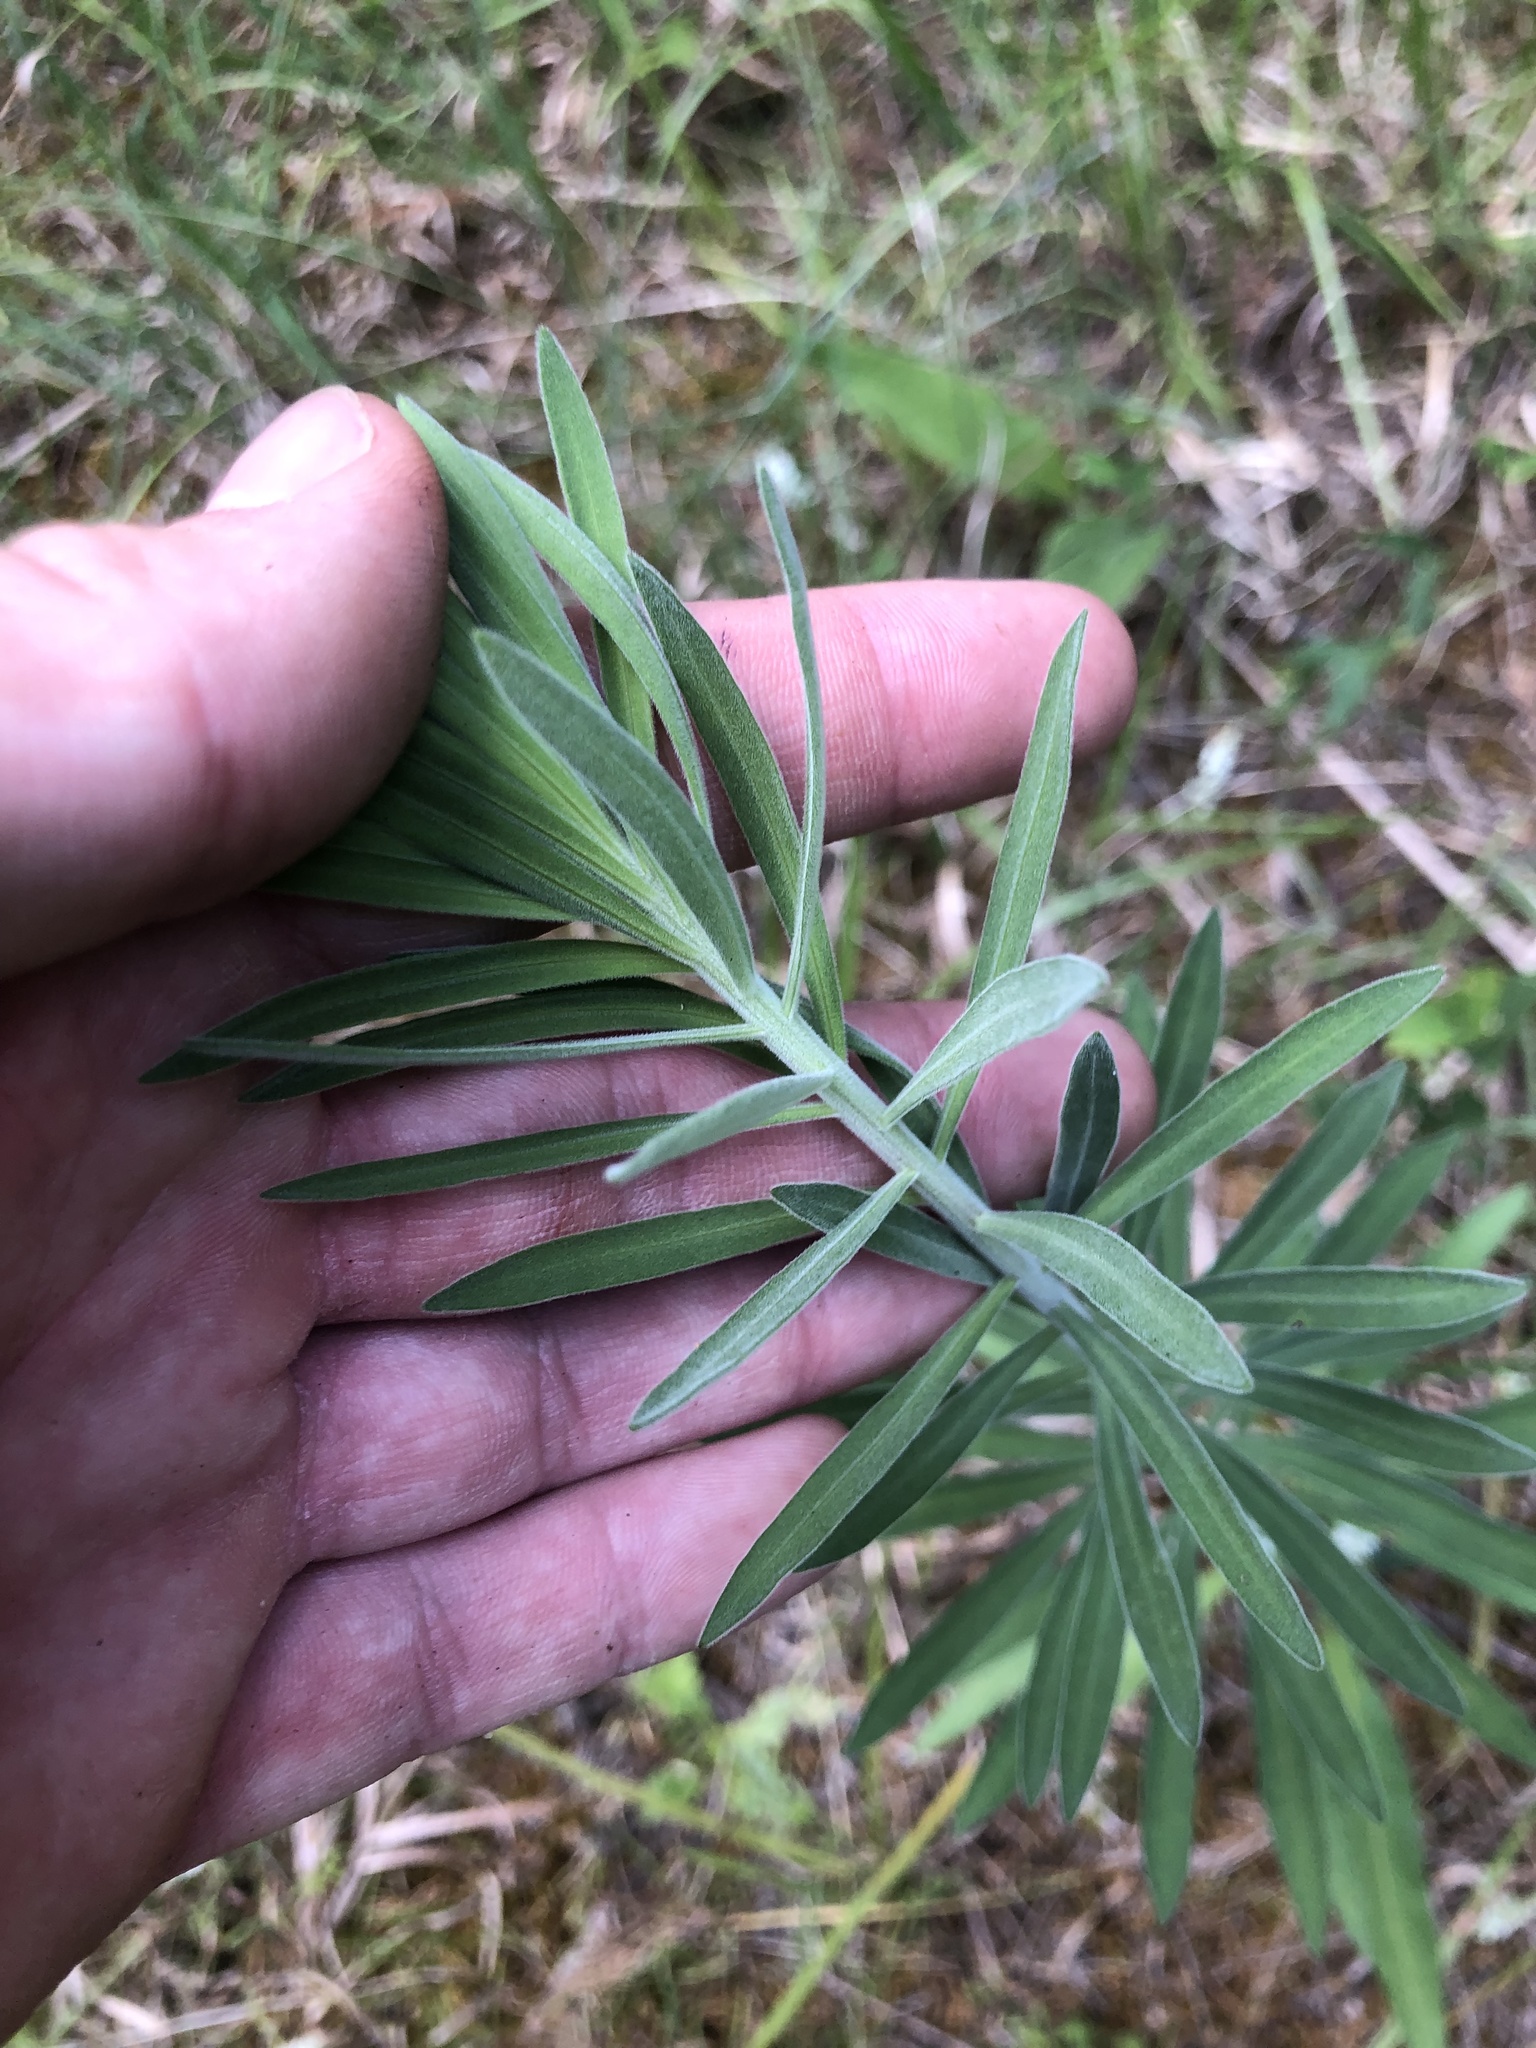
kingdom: Plantae
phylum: Tracheophyta
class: Magnoliopsida
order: Asterales
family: Asteraceae
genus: Liatris
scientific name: Liatris squarrulosa
